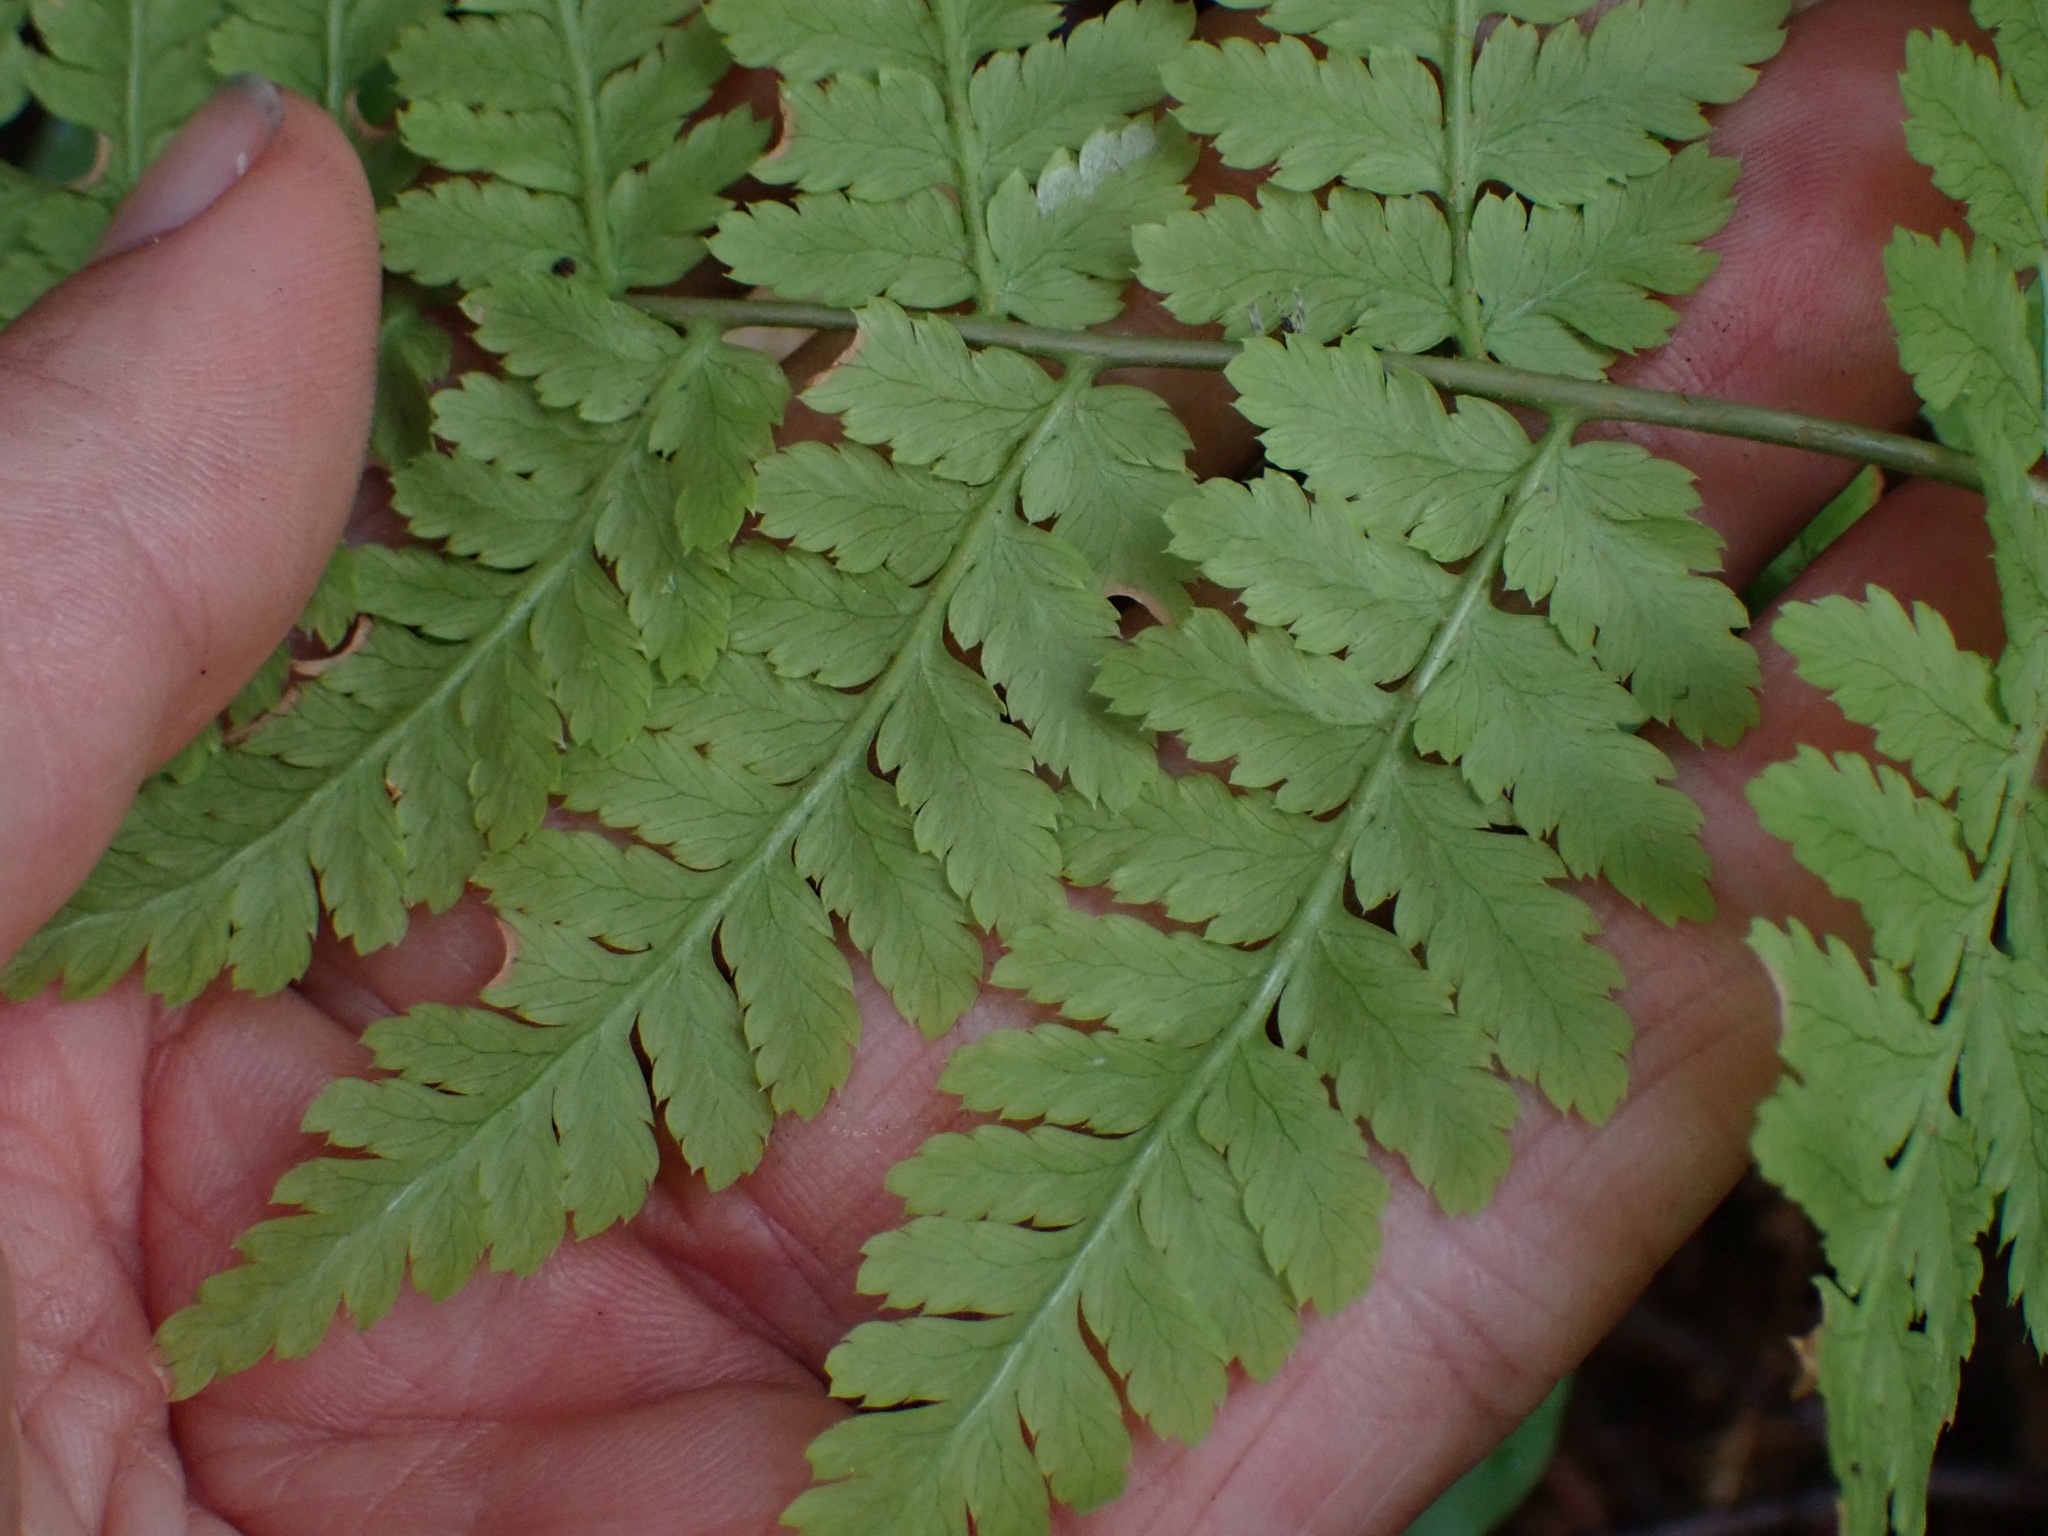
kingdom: Plantae
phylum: Tracheophyta
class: Polypodiopsida
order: Polypodiales
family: Dryopteridaceae
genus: Dryopteris
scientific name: Dryopteris expansa
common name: Northern buckler fern
